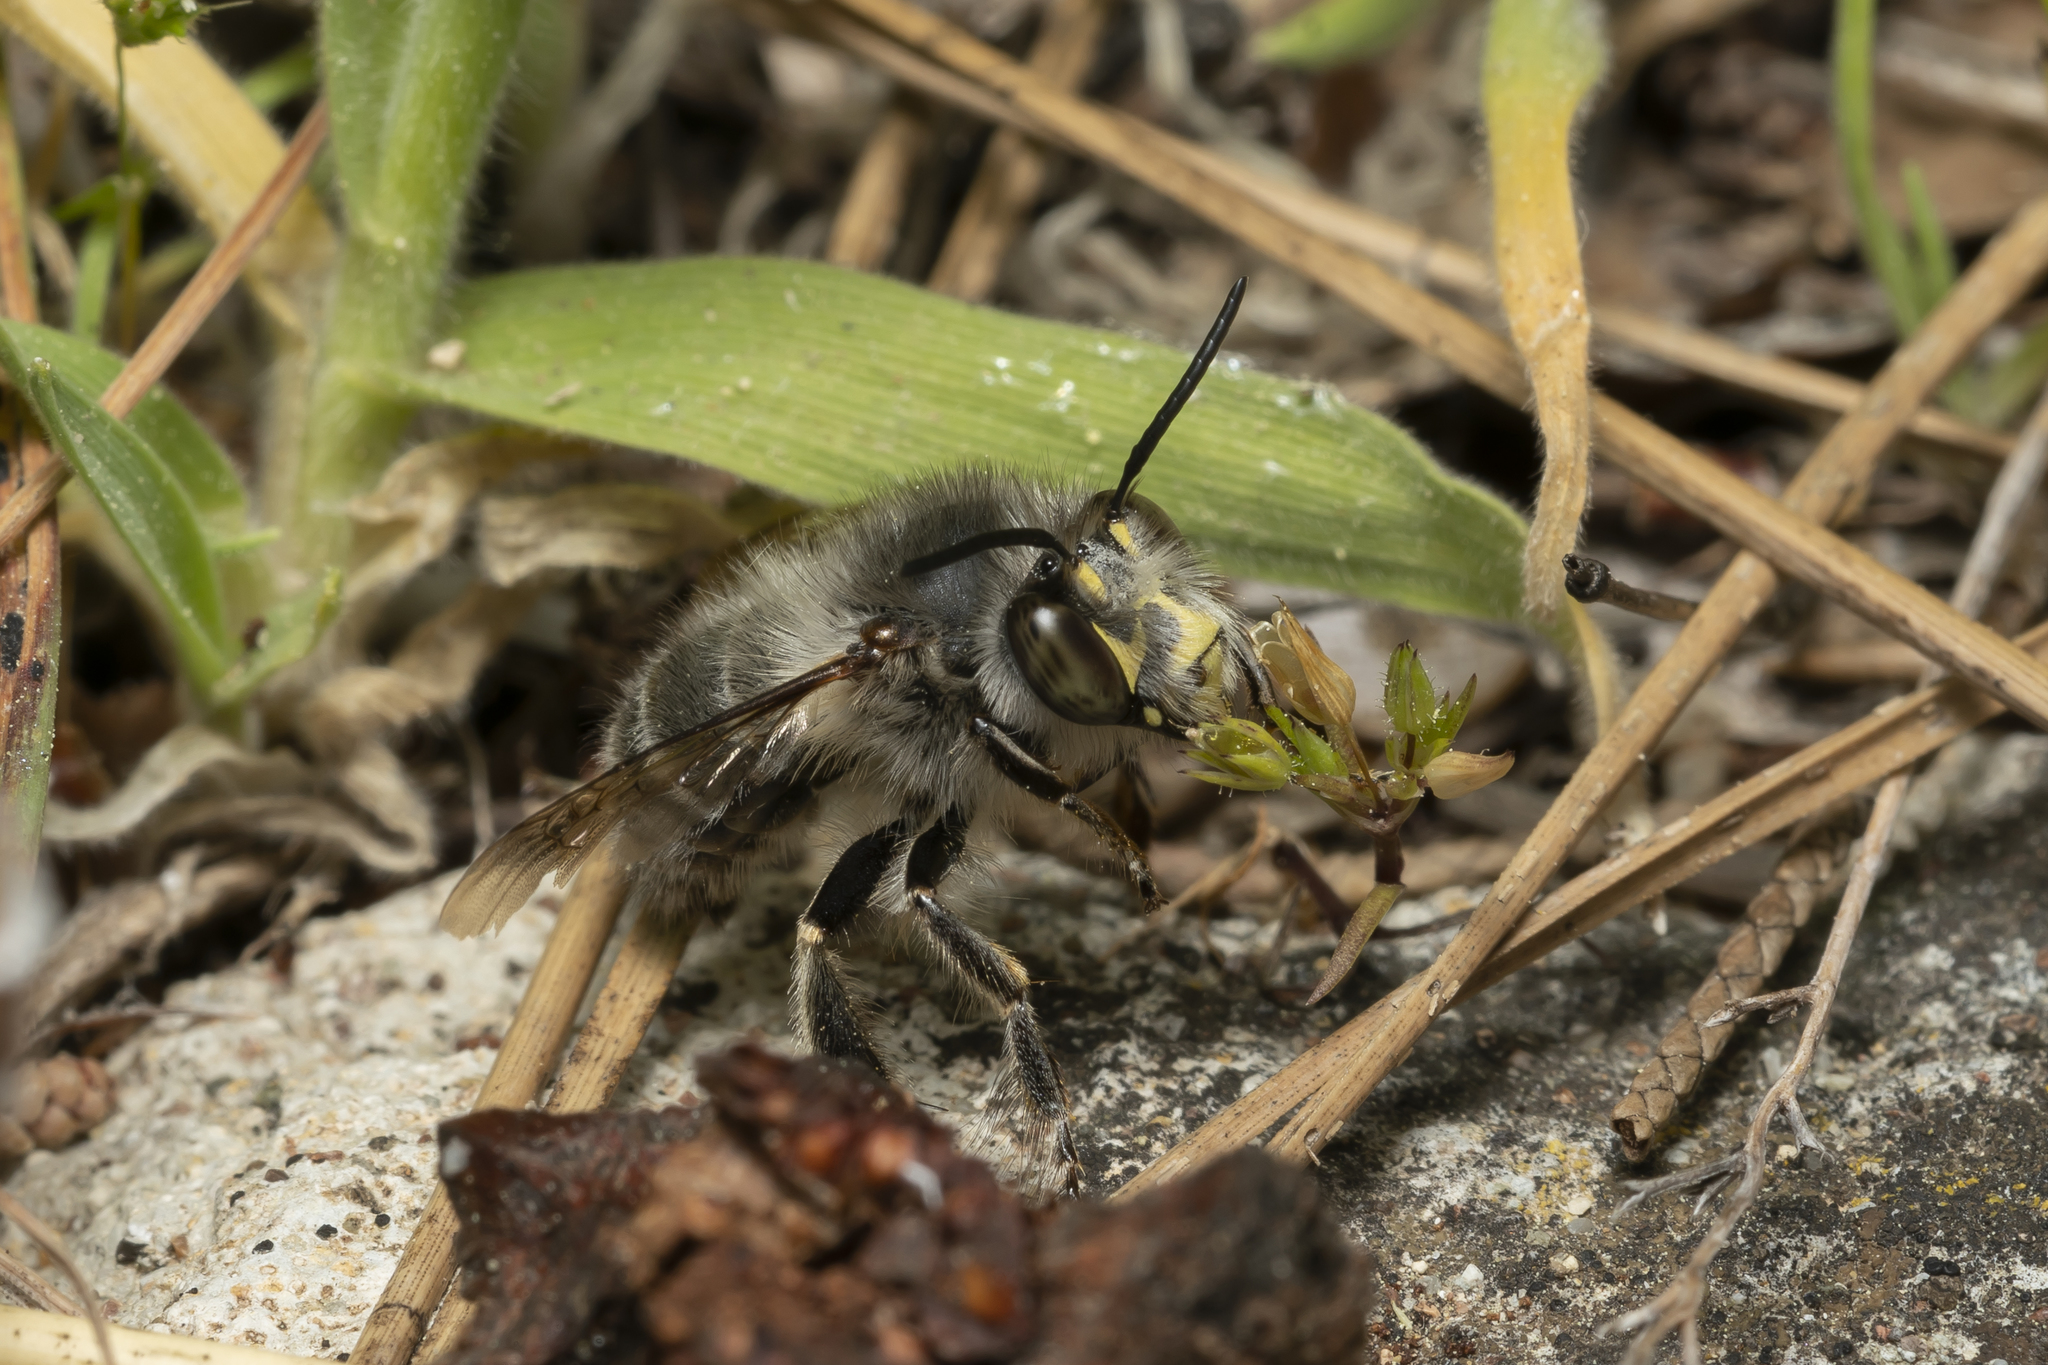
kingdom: Animalia
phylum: Arthropoda
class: Insecta
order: Hymenoptera
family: Apidae
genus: Anthophora
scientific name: Anthophora plumipes
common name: Hairy-footed flower bee
